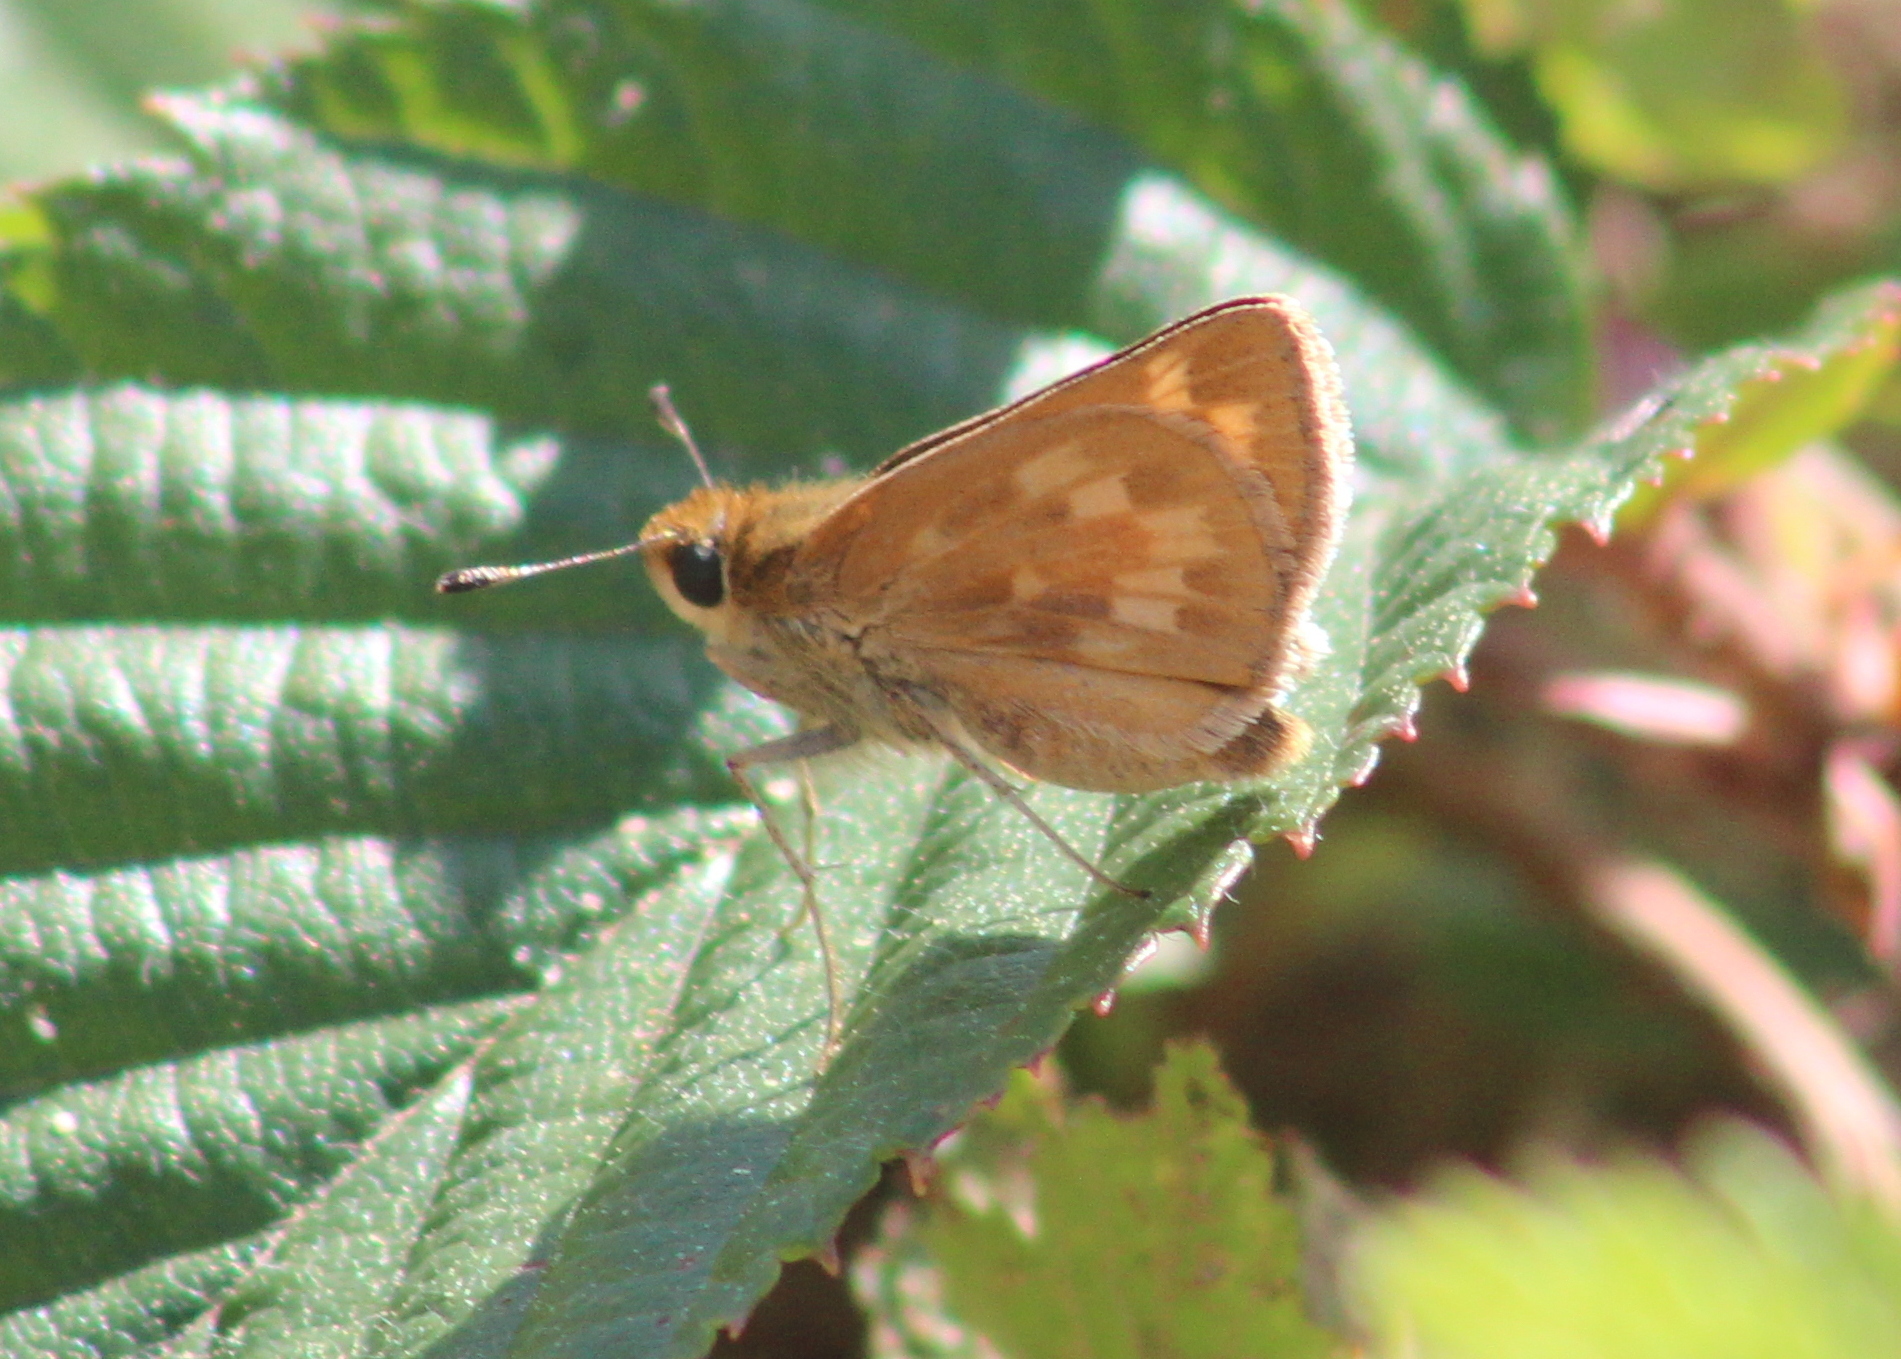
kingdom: Animalia
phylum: Arthropoda
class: Insecta
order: Lepidoptera
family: Hesperiidae
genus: Hesperia
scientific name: Hesperia sassacus
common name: Indian skipper
